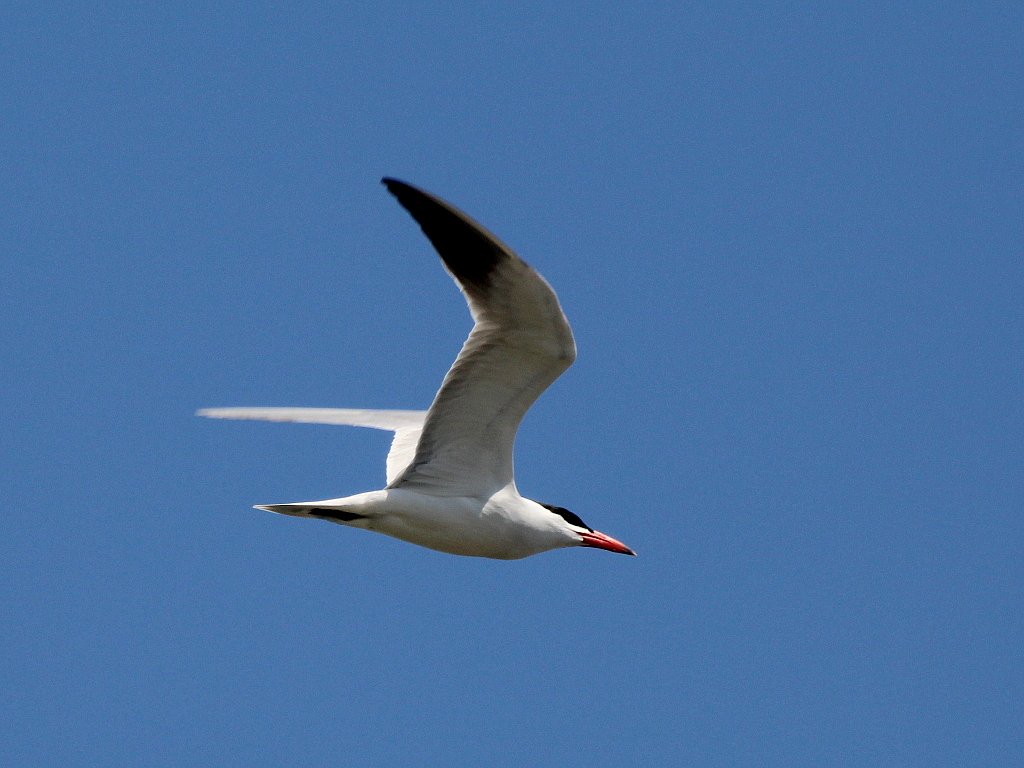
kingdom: Animalia
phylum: Chordata
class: Aves
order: Charadriiformes
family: Laridae
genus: Hydroprogne
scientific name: Hydroprogne caspia
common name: Caspian tern
